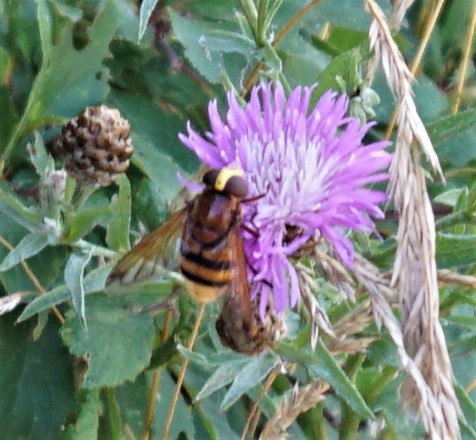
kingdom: Animalia
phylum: Arthropoda
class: Insecta
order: Diptera
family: Syrphidae
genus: Volucella
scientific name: Volucella zonaria
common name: Hornet hoverfly
